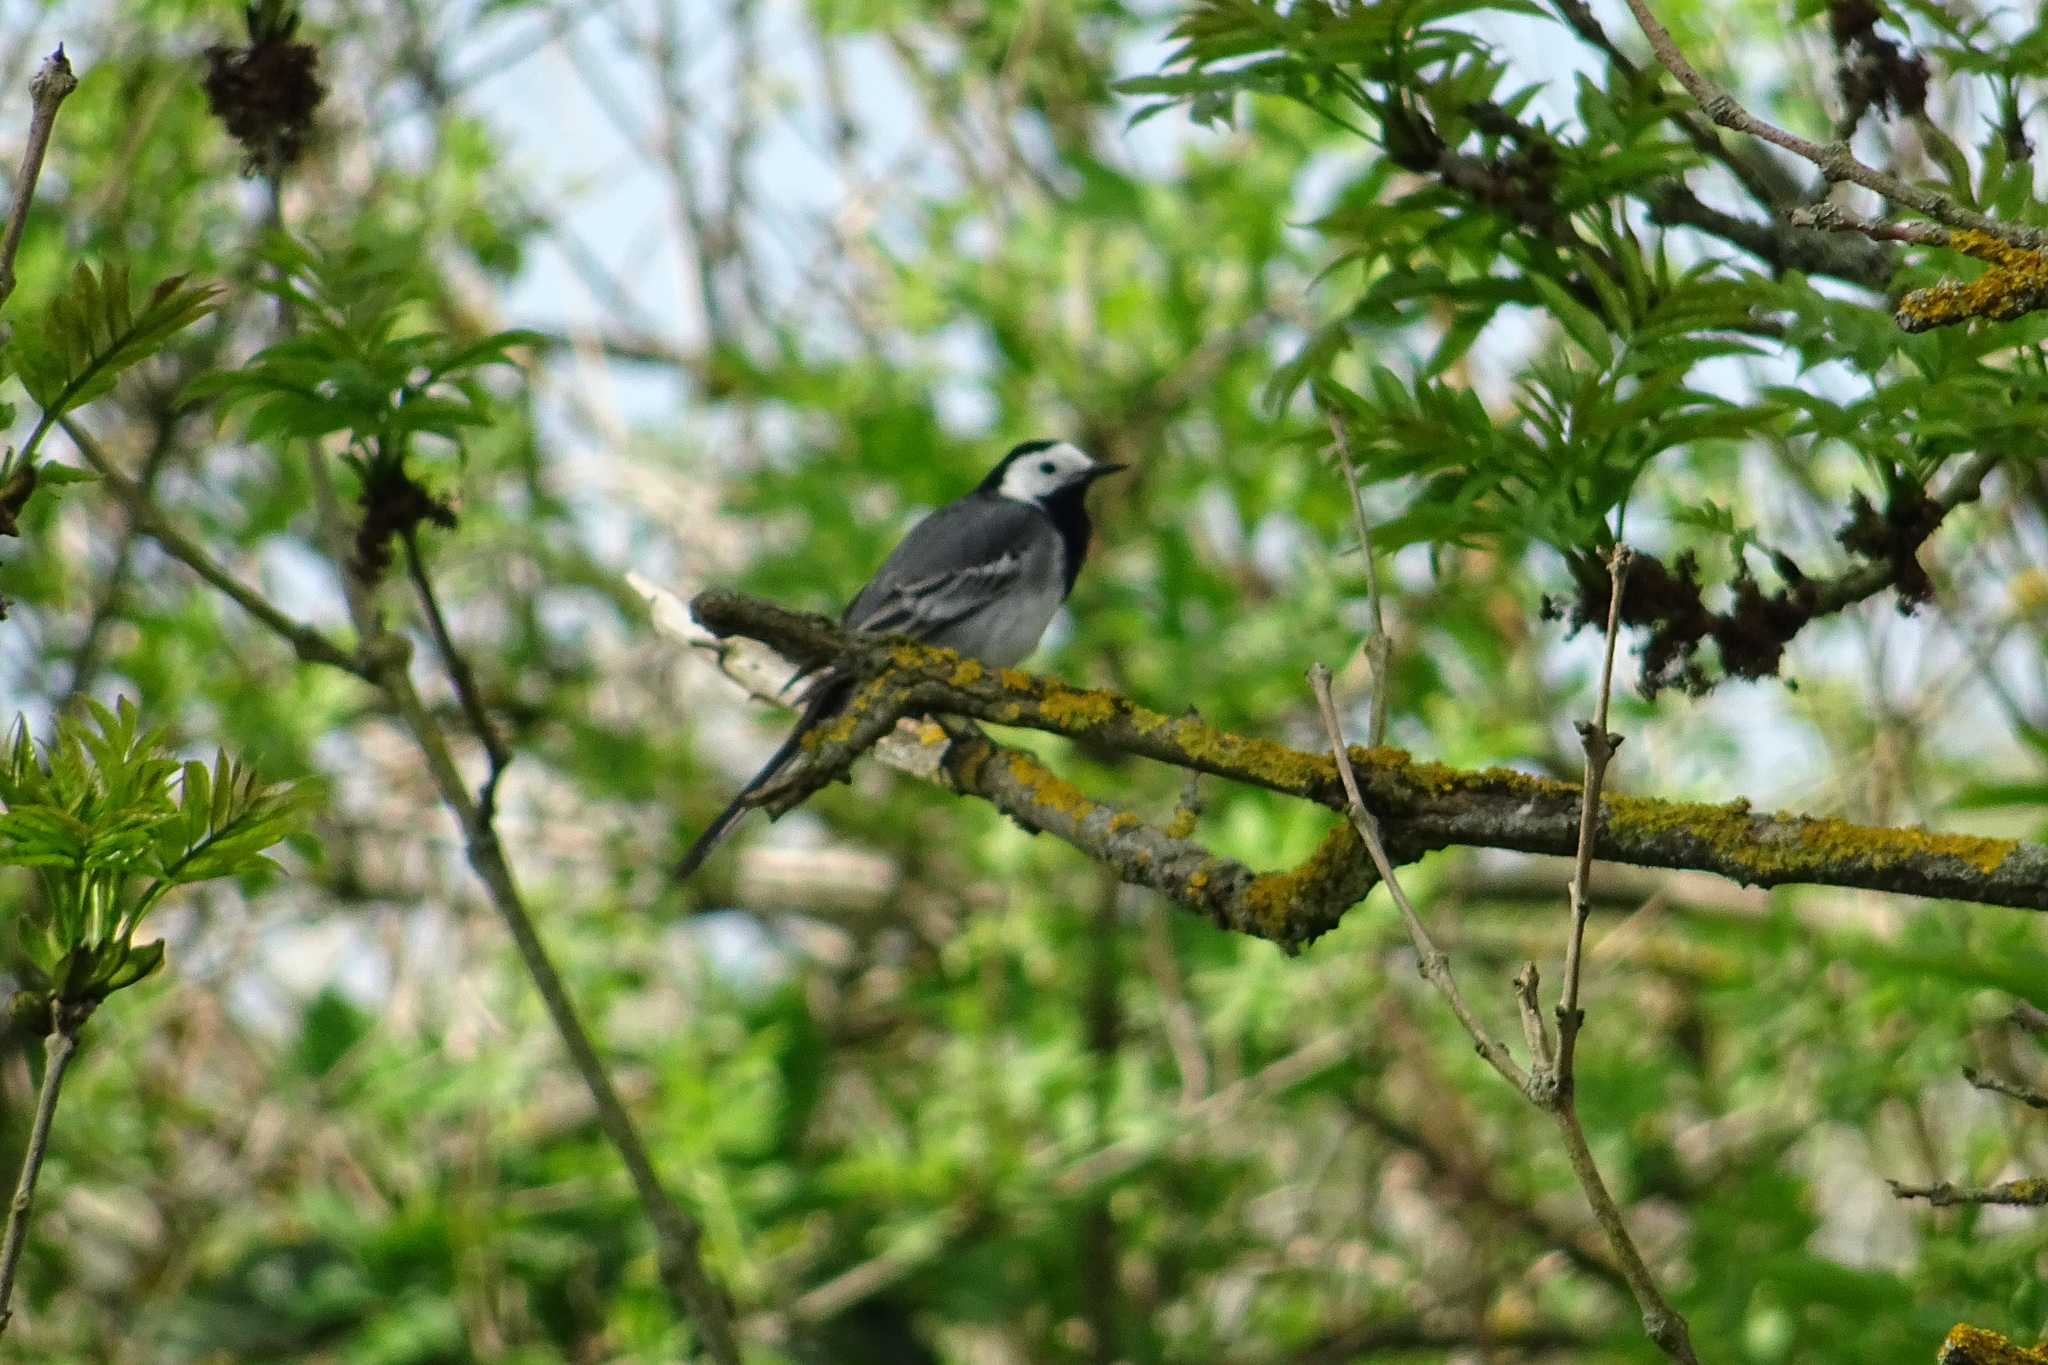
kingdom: Animalia
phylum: Chordata
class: Aves
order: Passeriformes
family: Motacillidae
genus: Motacilla
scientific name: Motacilla alba
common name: White wagtail
